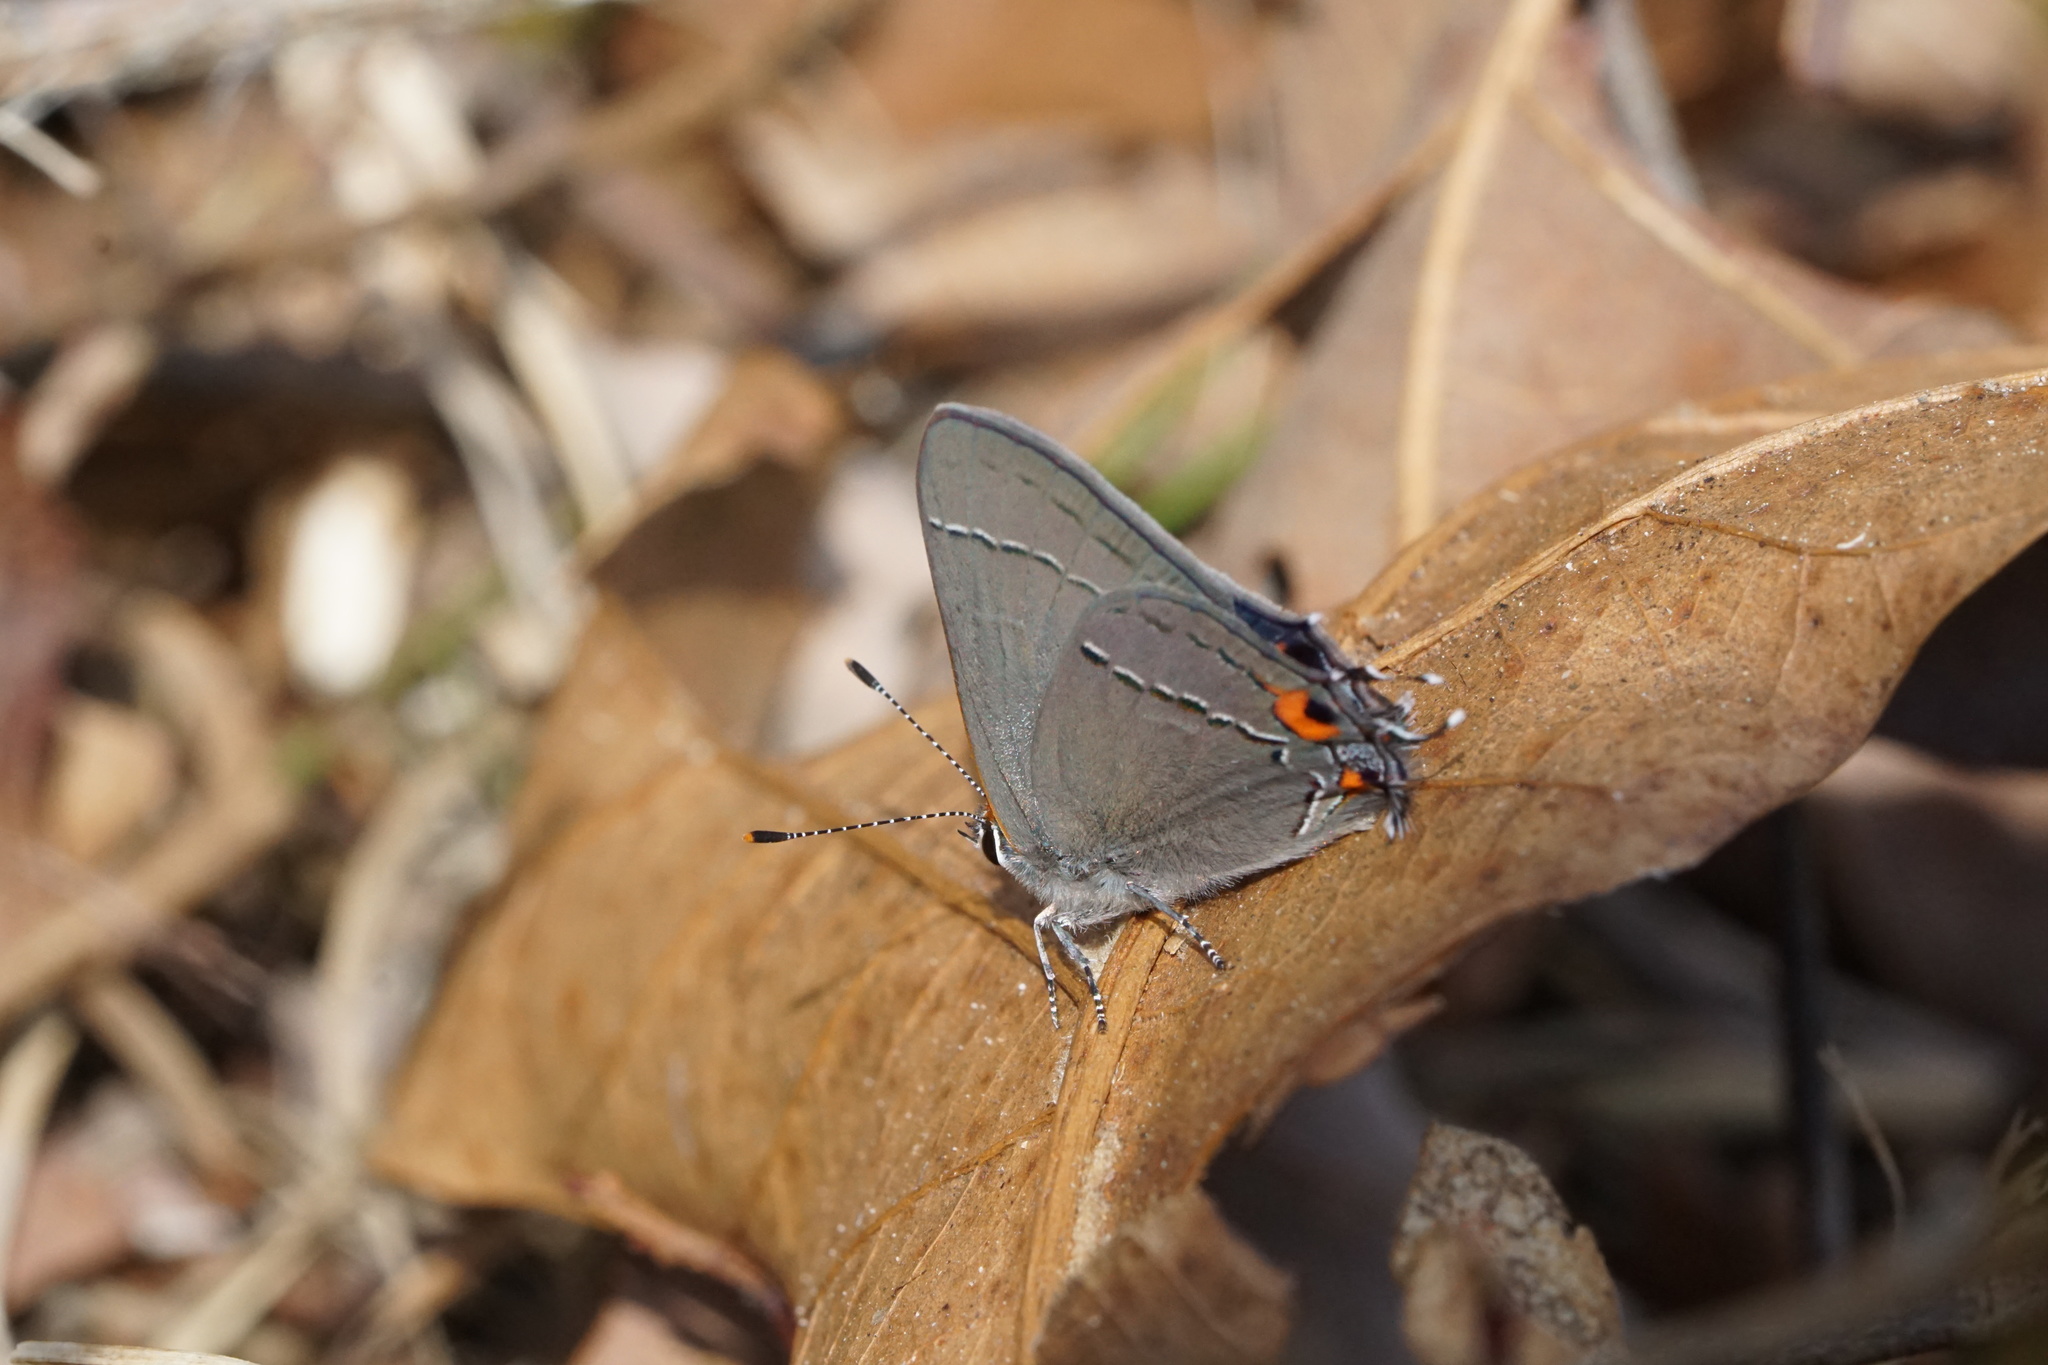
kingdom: Animalia
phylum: Arthropoda
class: Insecta
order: Lepidoptera
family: Lycaenidae
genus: Strymon
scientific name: Strymon melinus
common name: Gray hairstreak
